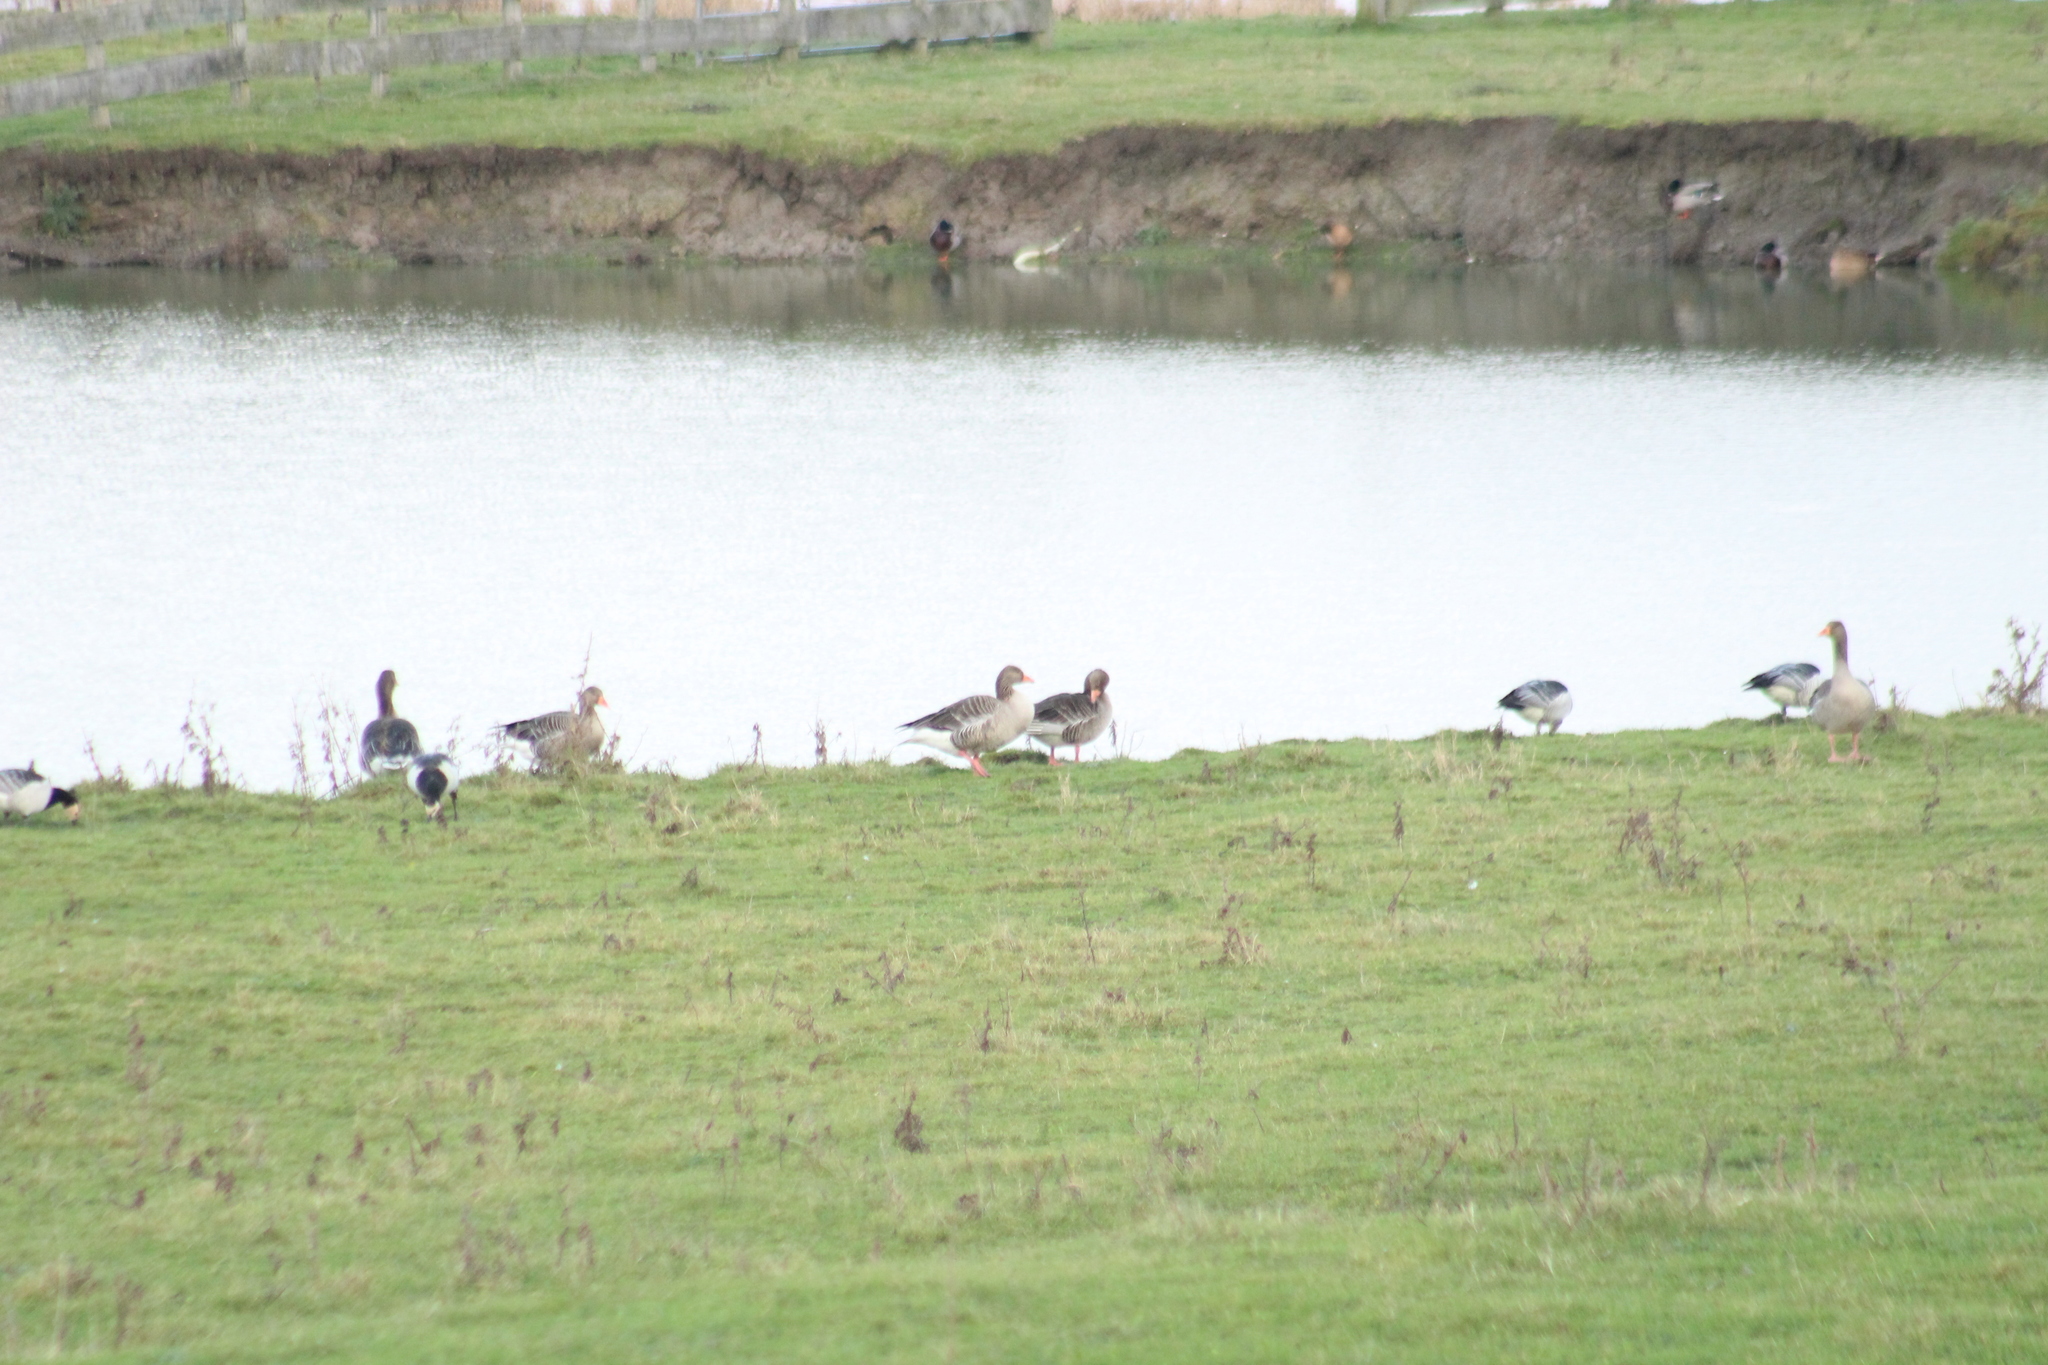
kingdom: Animalia
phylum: Chordata
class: Aves
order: Anseriformes
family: Anatidae
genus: Anser
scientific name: Anser anser
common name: Greylag goose
